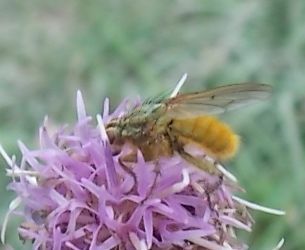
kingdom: Animalia
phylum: Arthropoda
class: Insecta
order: Diptera
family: Scathophagidae
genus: Scathophaga
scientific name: Scathophaga stercoraria
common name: Yellow dung fly
